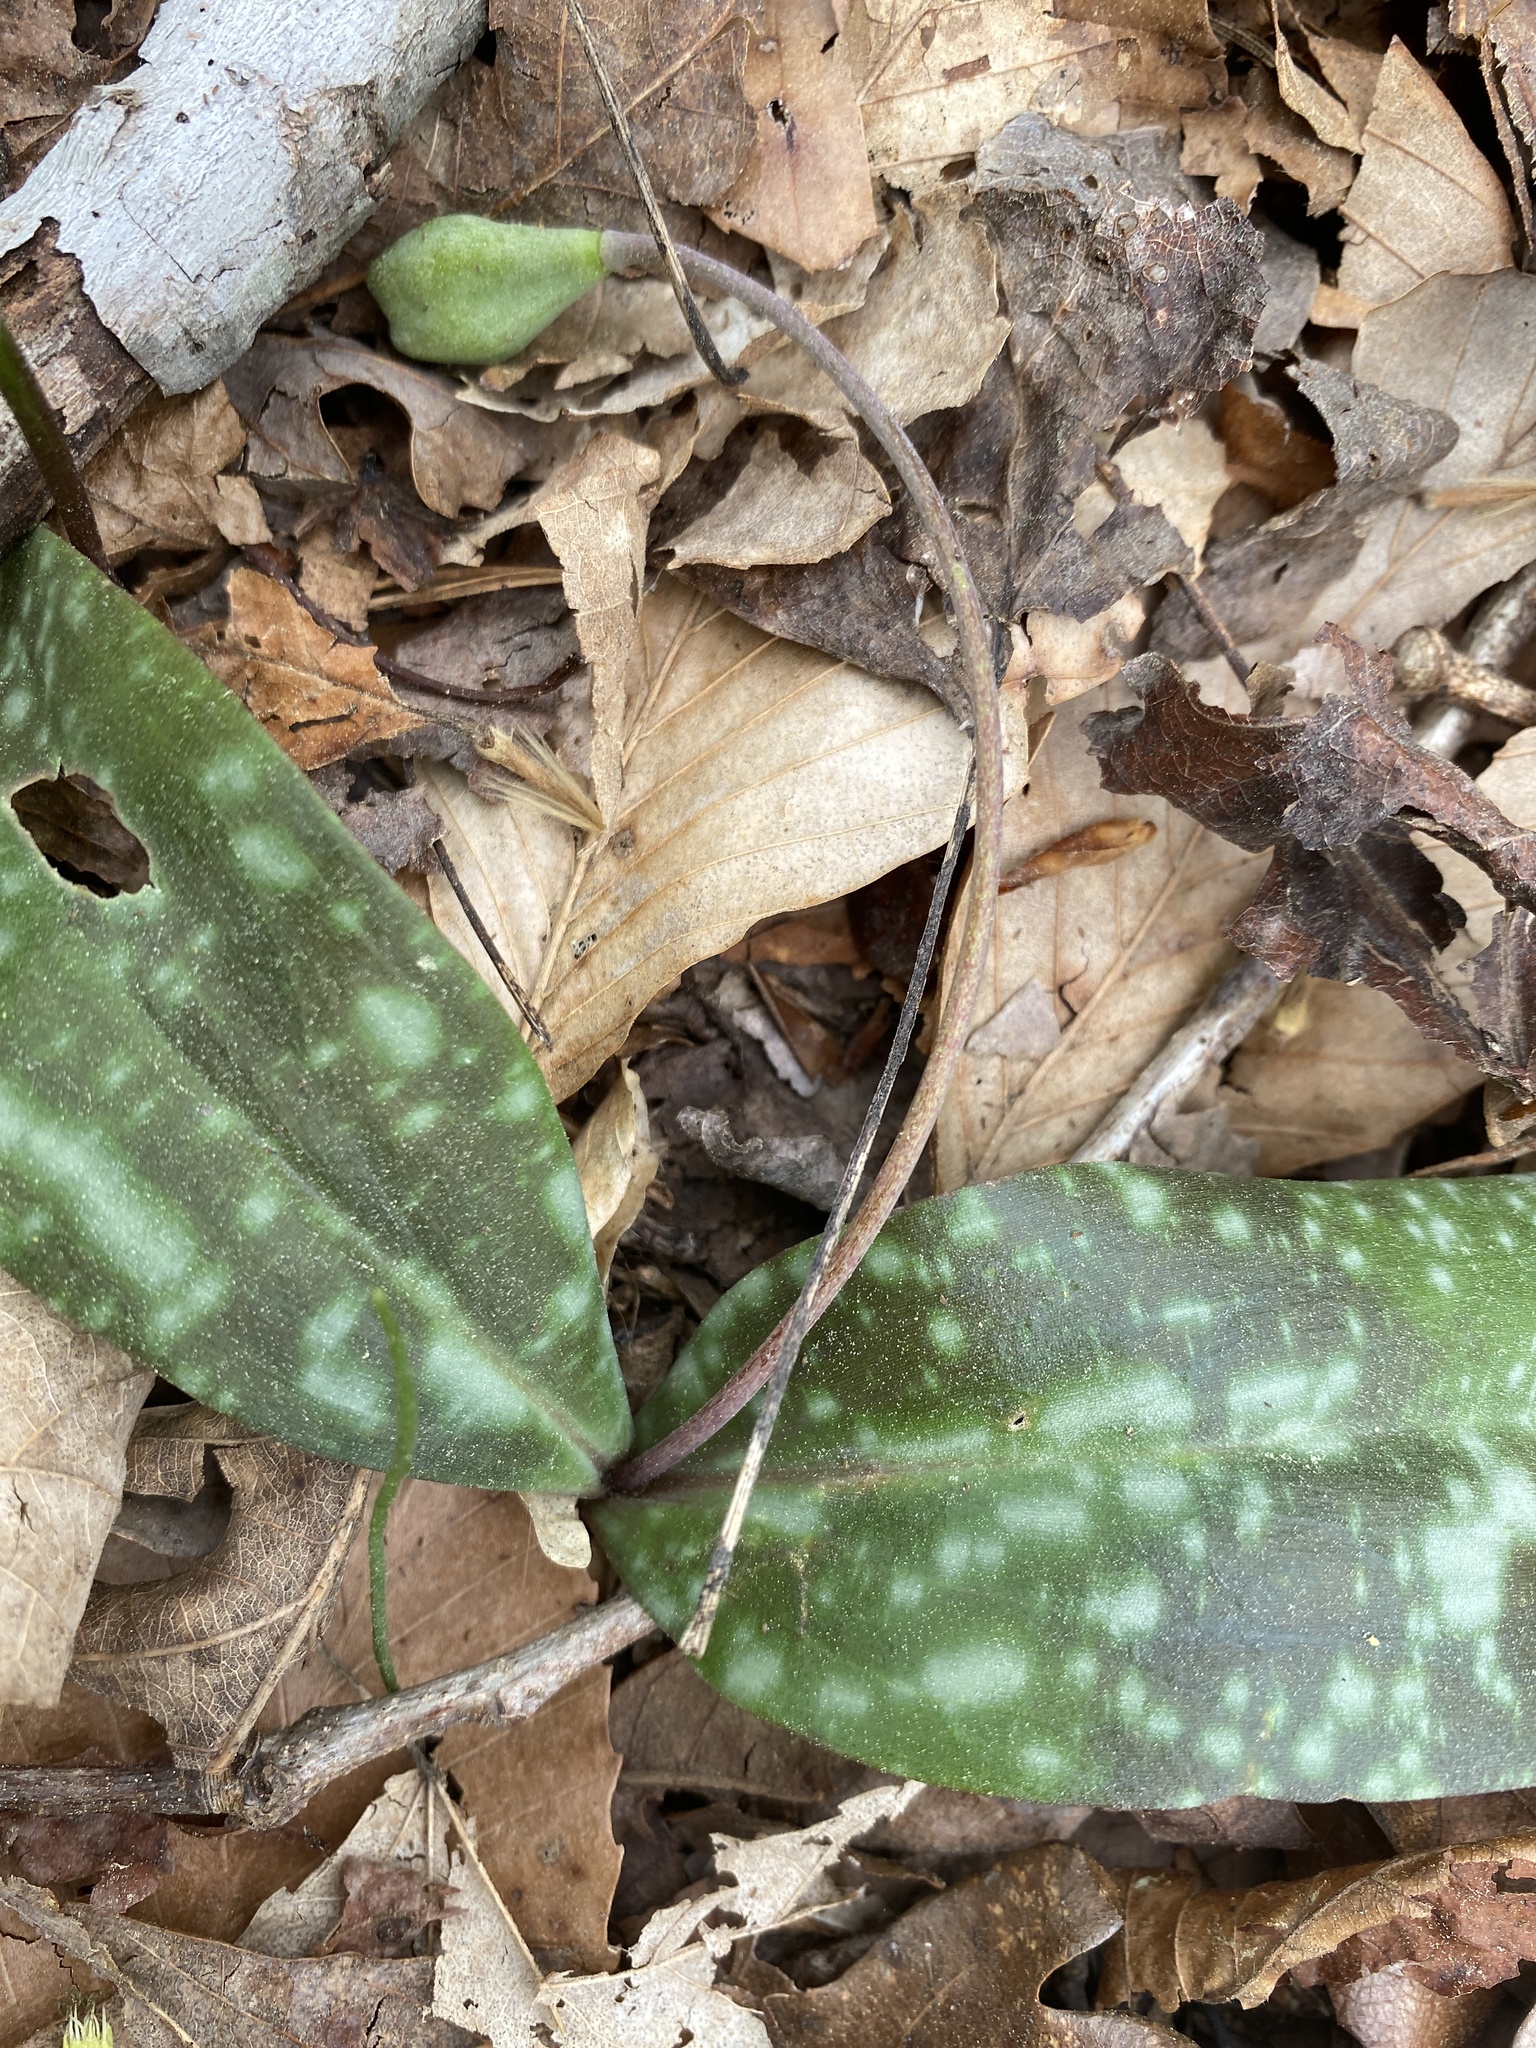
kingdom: Plantae
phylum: Tracheophyta
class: Liliopsida
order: Liliales
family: Liliaceae
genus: Erythronium
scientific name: Erythronium umbilicatum
